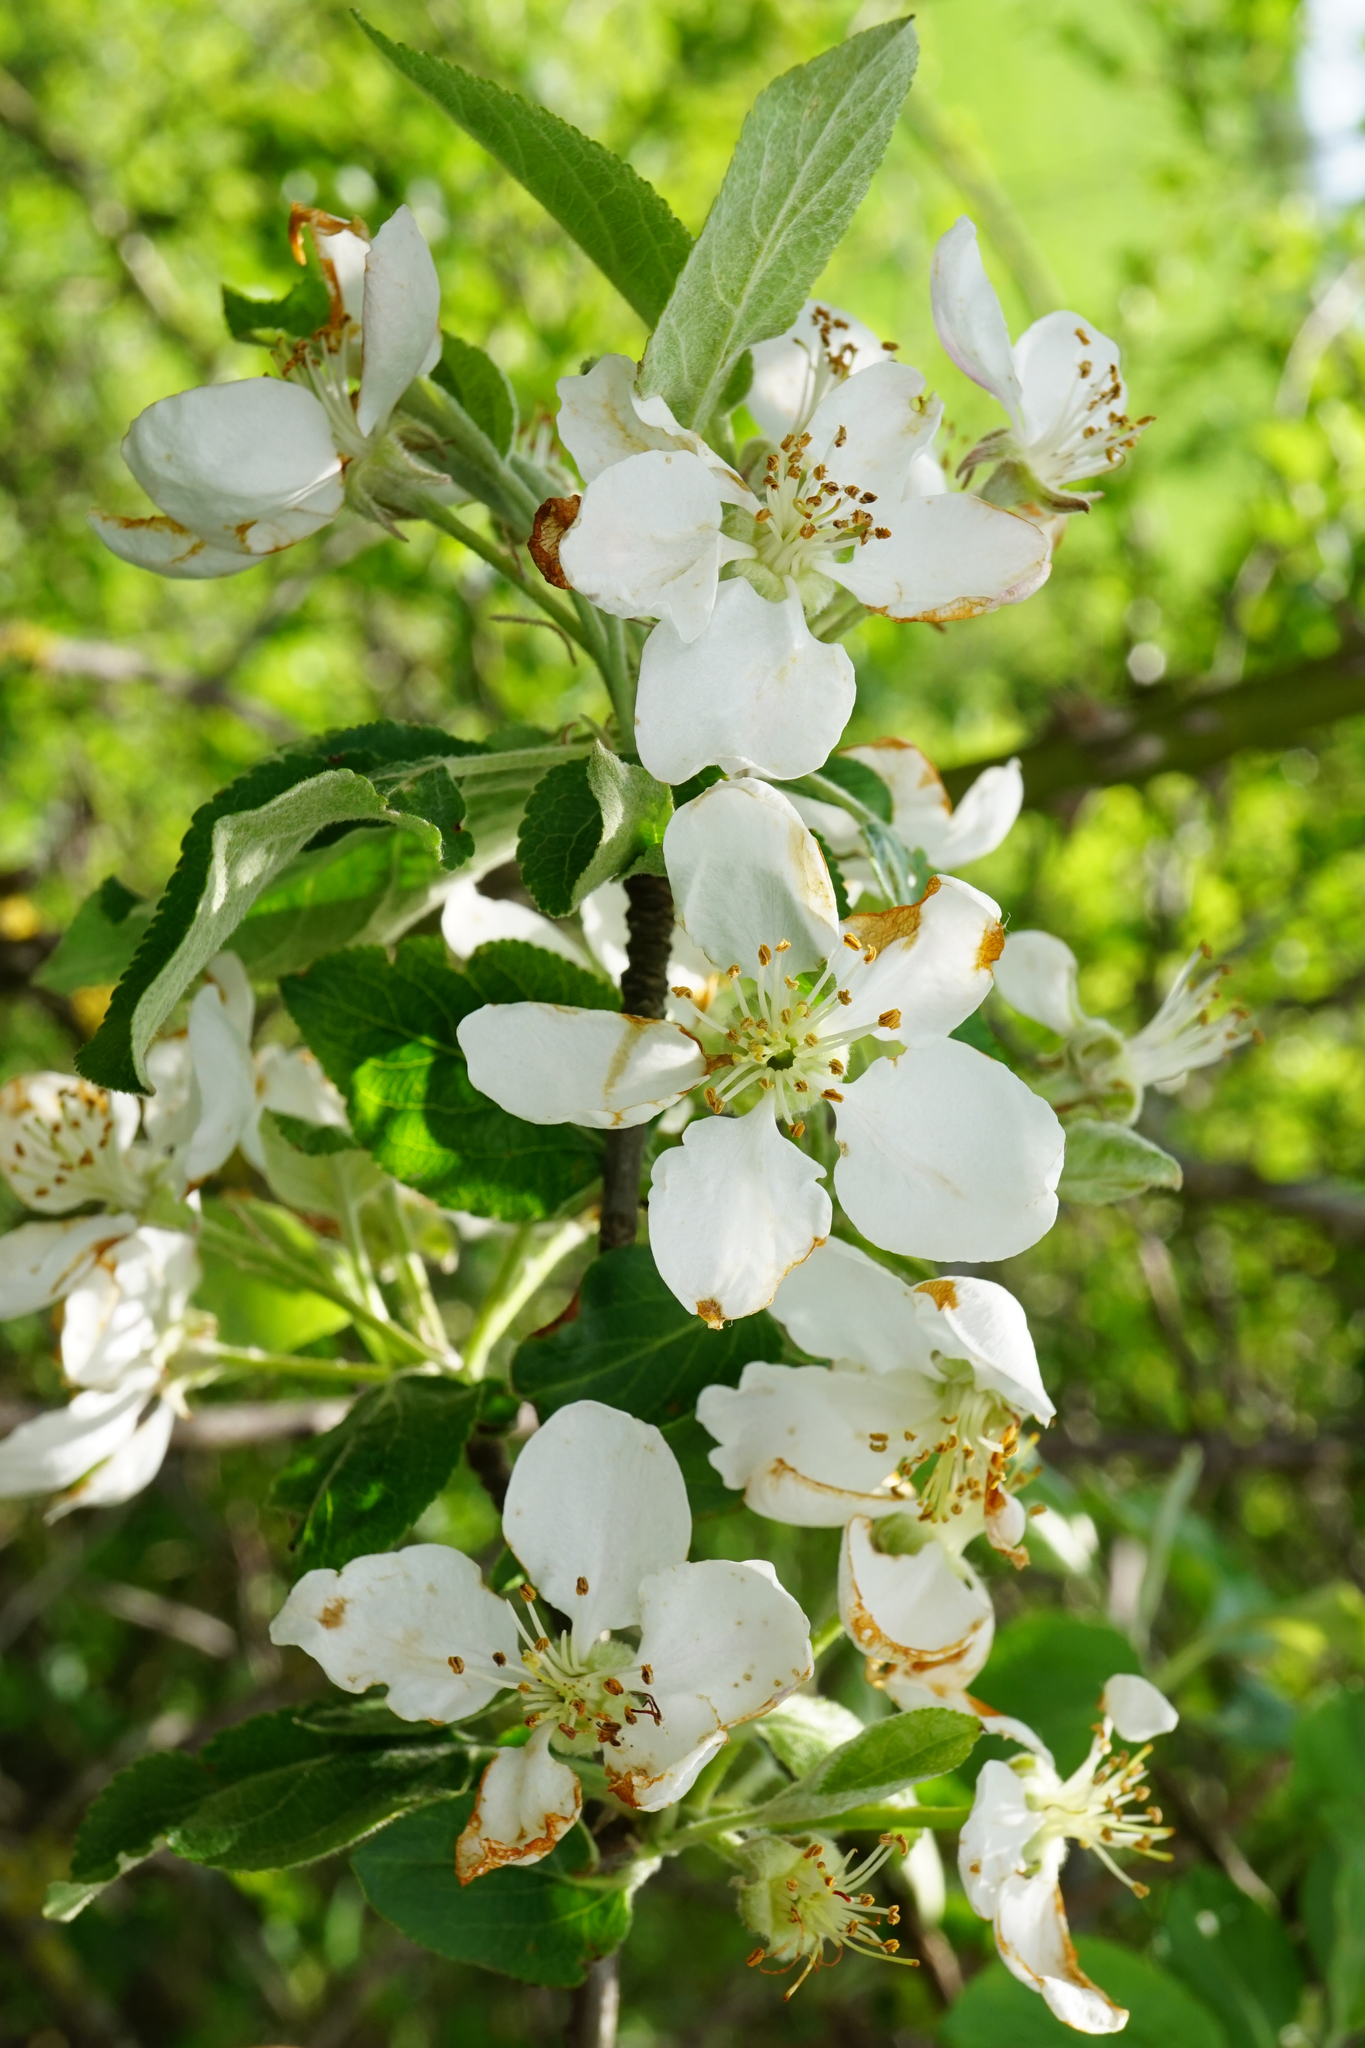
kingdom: Plantae
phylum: Tracheophyta
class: Magnoliopsida
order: Rosales
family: Rosaceae
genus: Malus
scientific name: Malus domestica
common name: Apple
